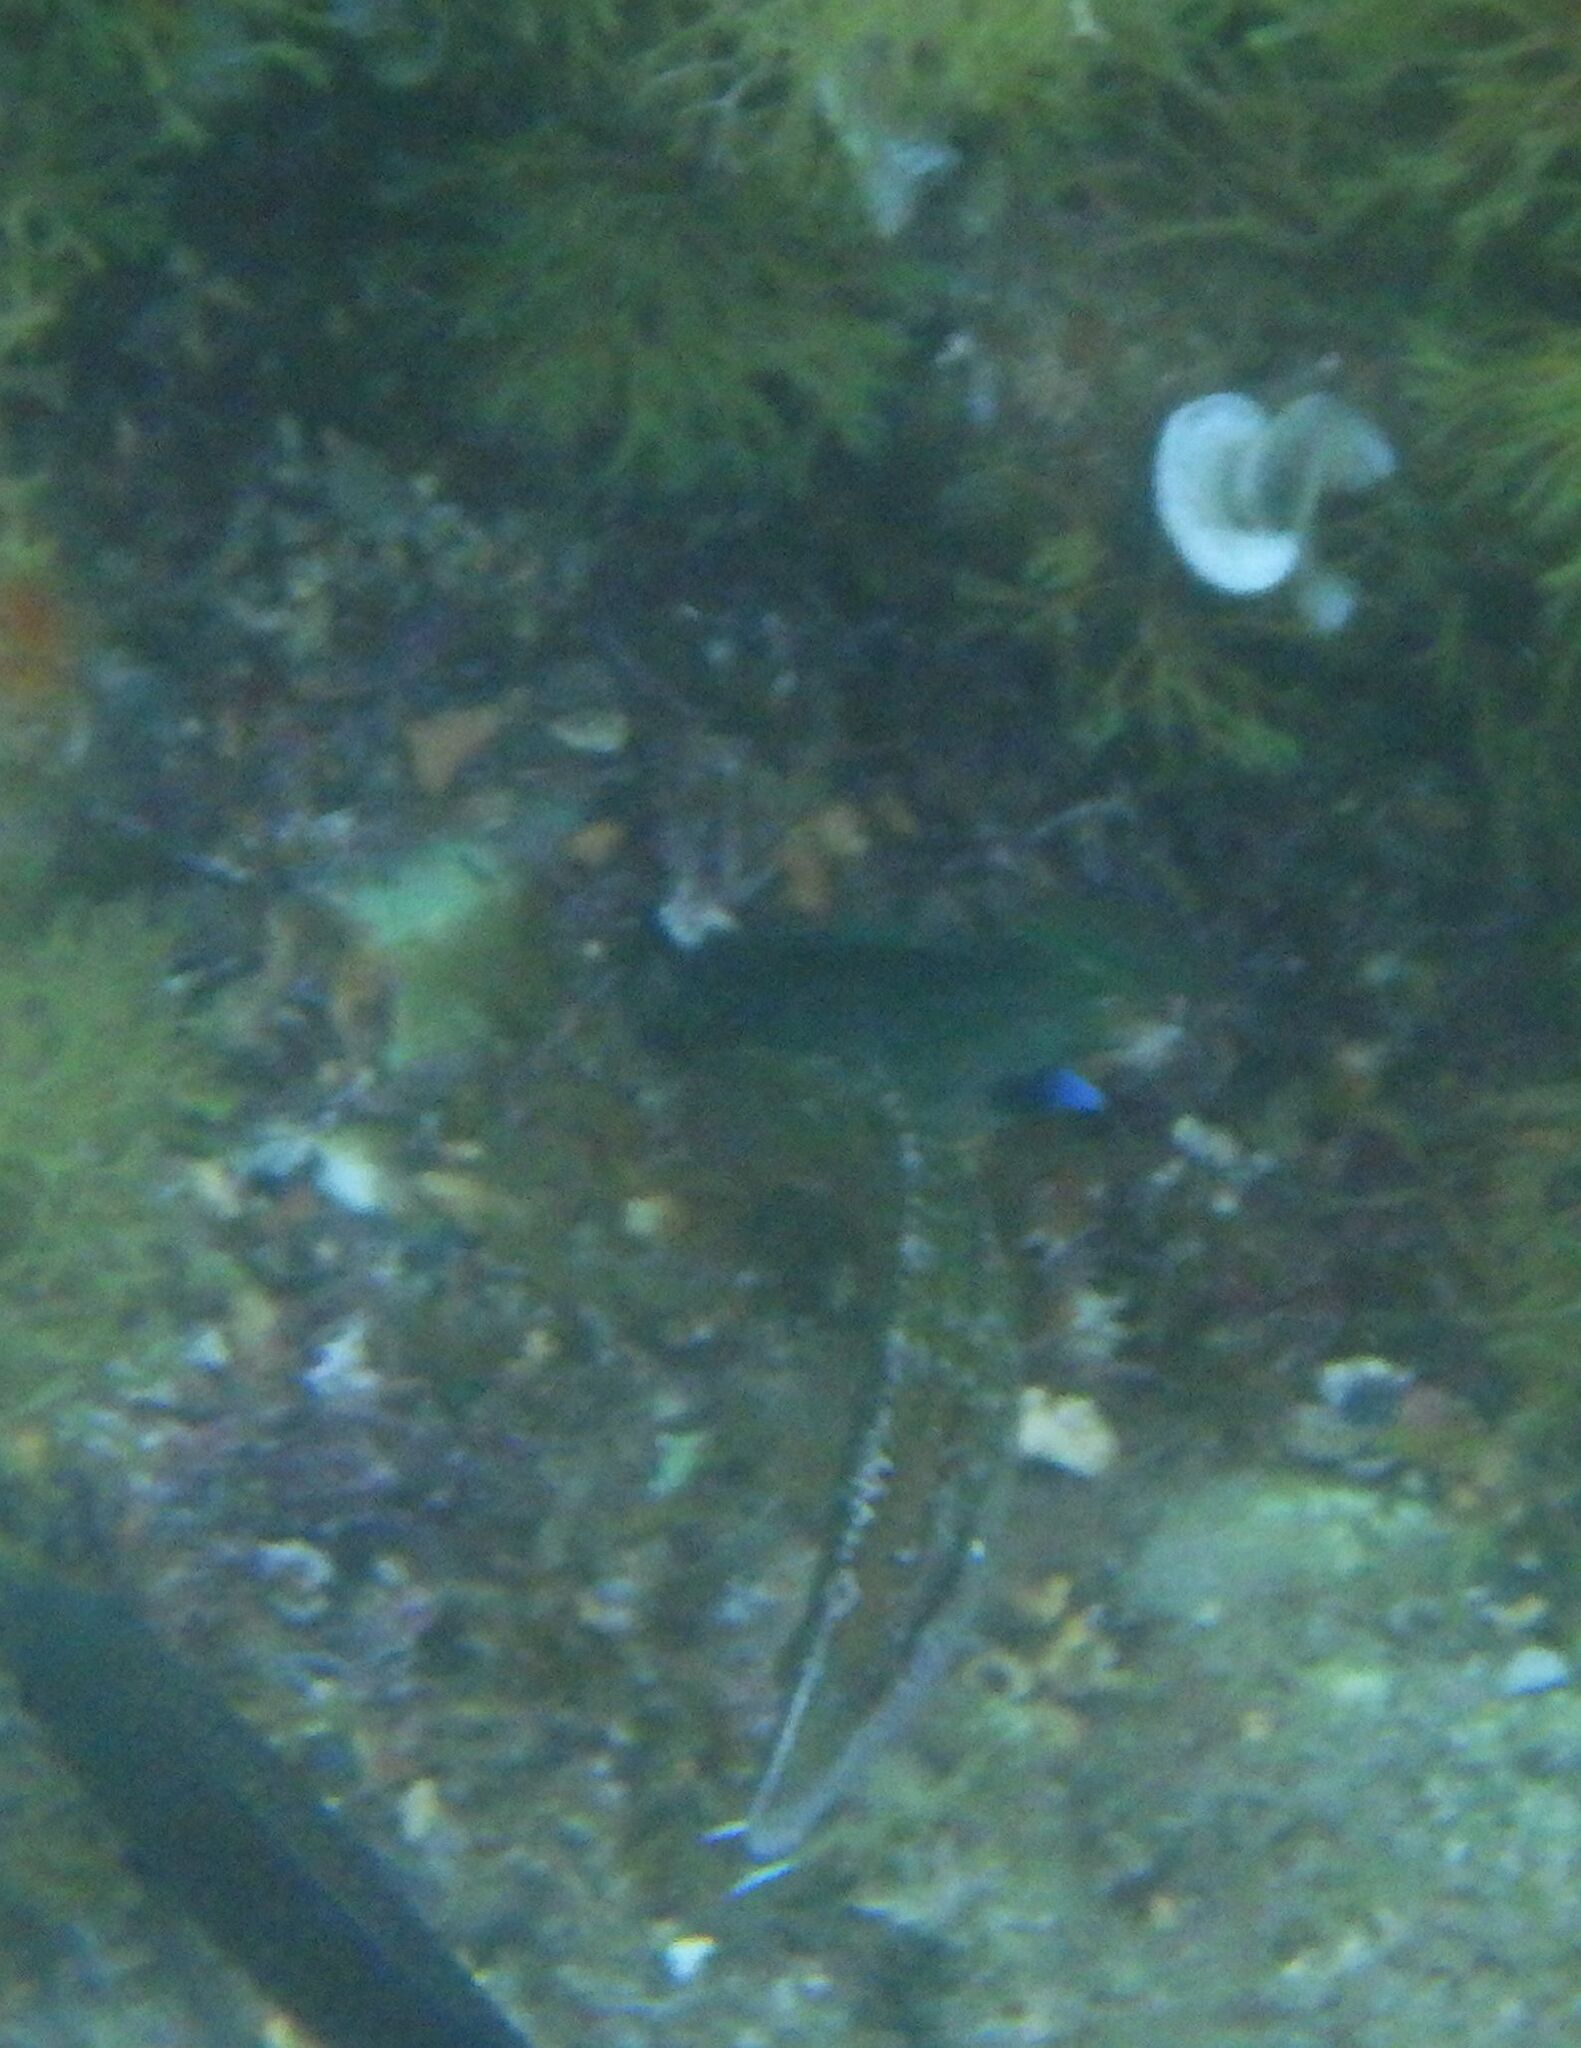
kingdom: Animalia
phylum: Chordata
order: Perciformes
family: Labridae
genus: Symphodus
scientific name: Symphodus rostratus
